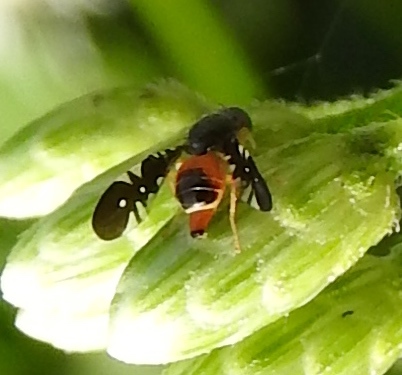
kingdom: Animalia
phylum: Arthropoda
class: Insecta
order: Diptera
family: Tephritidae
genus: Xanthaciura
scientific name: Xanthaciura
